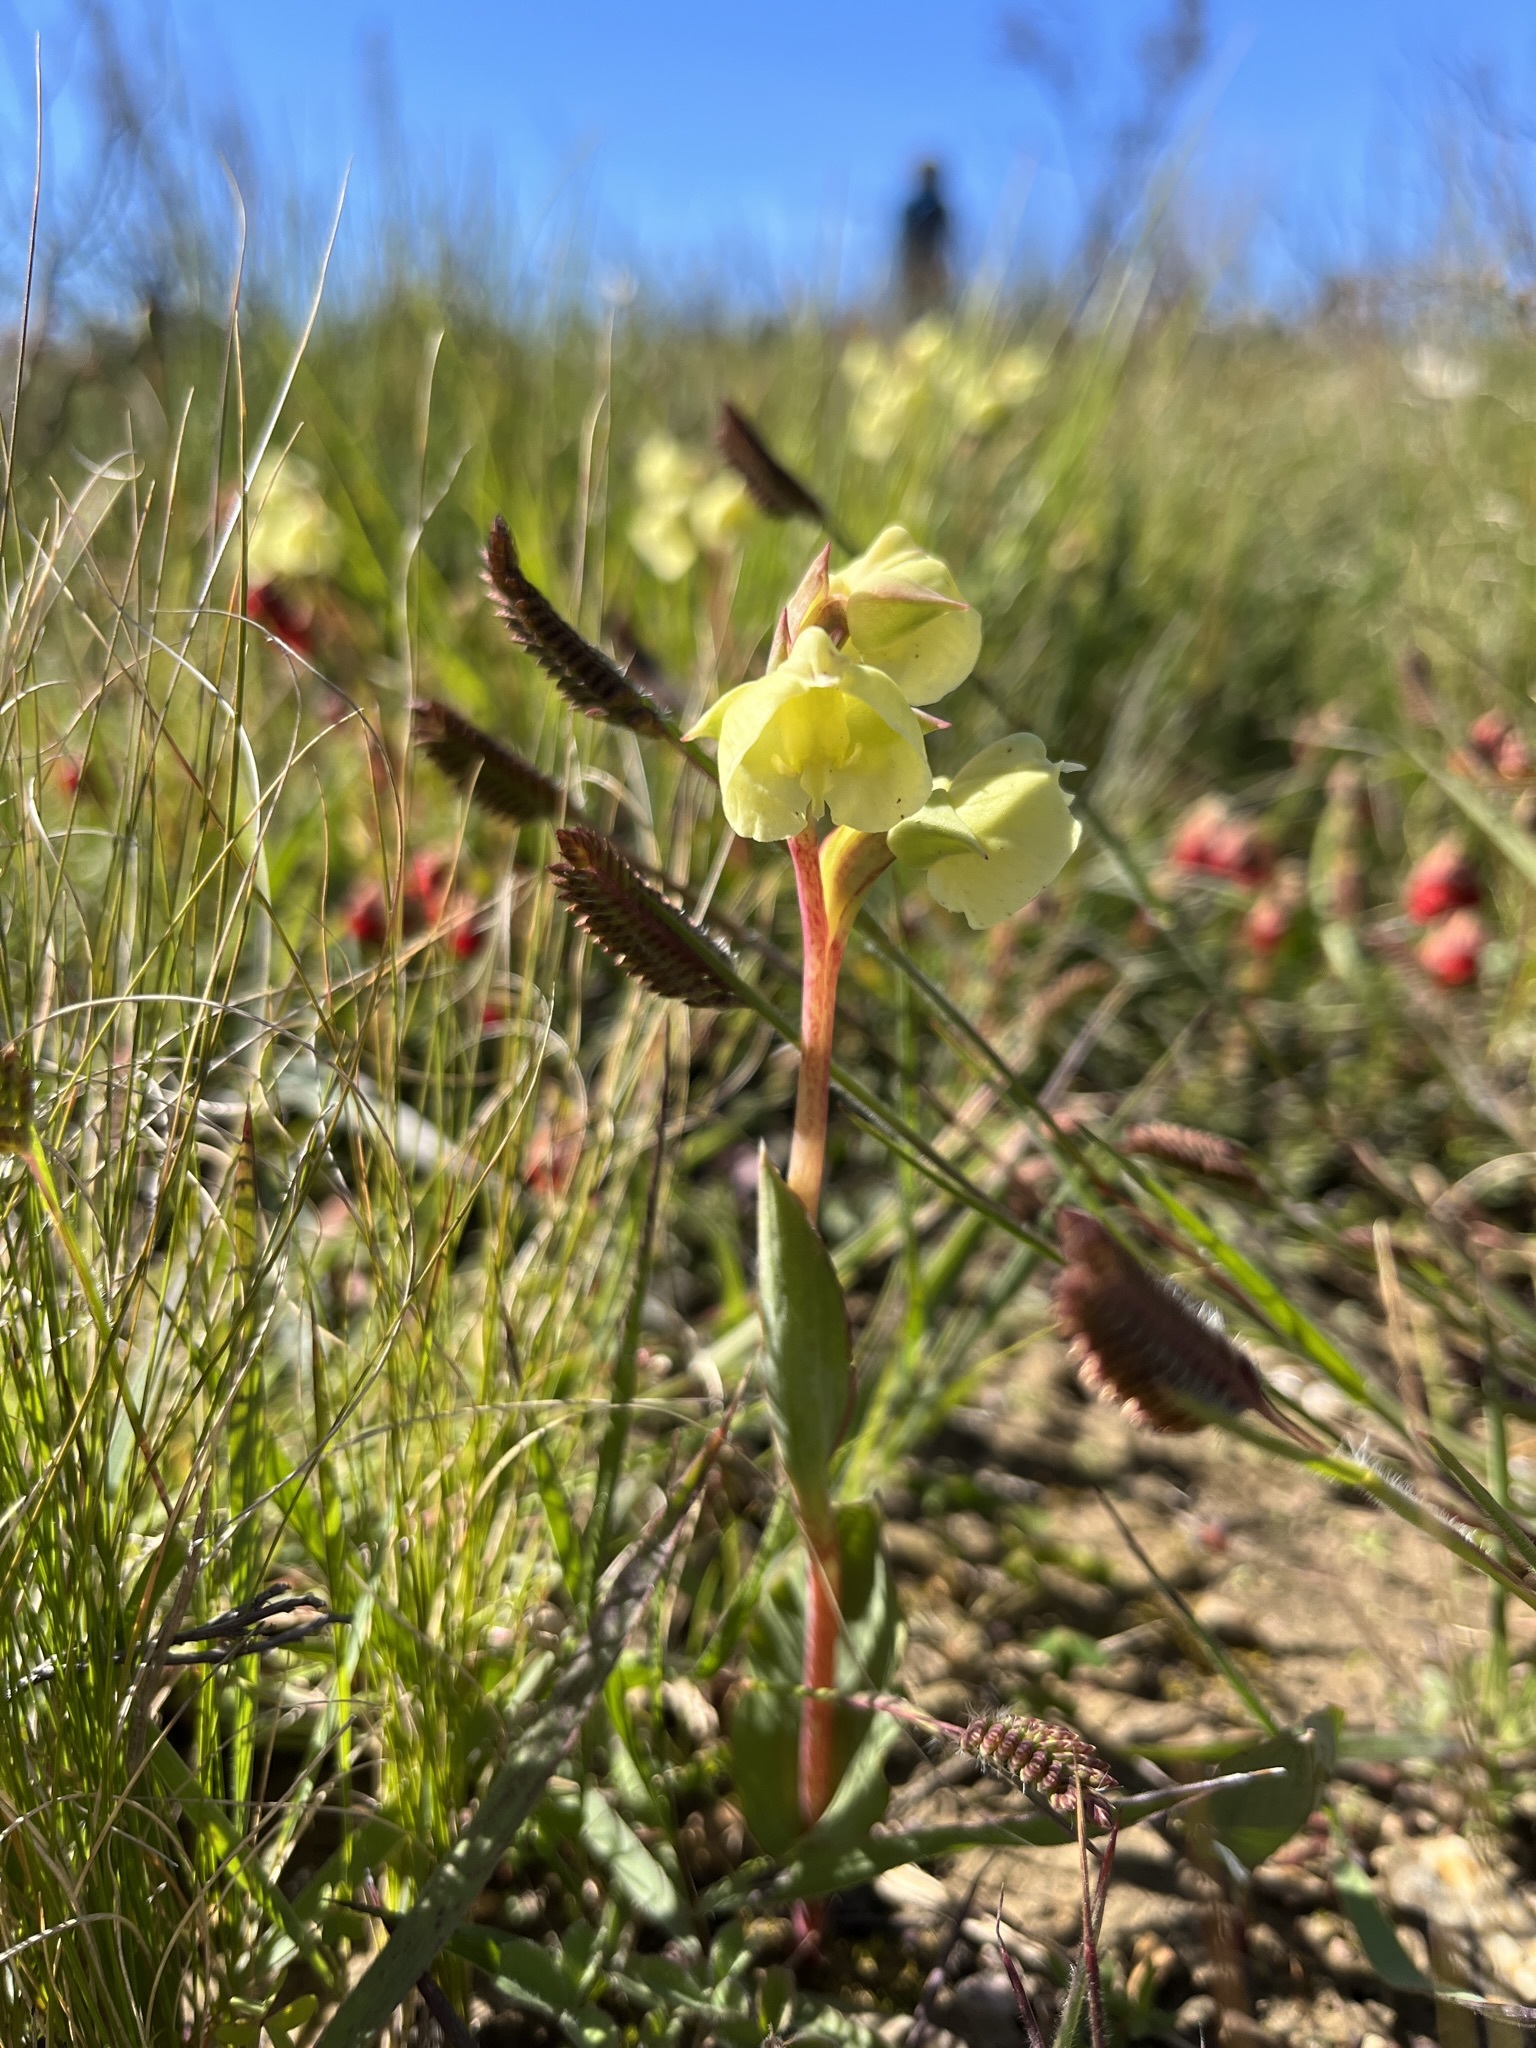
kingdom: Plantae
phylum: Tracheophyta
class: Liliopsida
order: Asparagales
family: Orchidaceae
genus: Pterygodium
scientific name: Pterygodium catholicum
